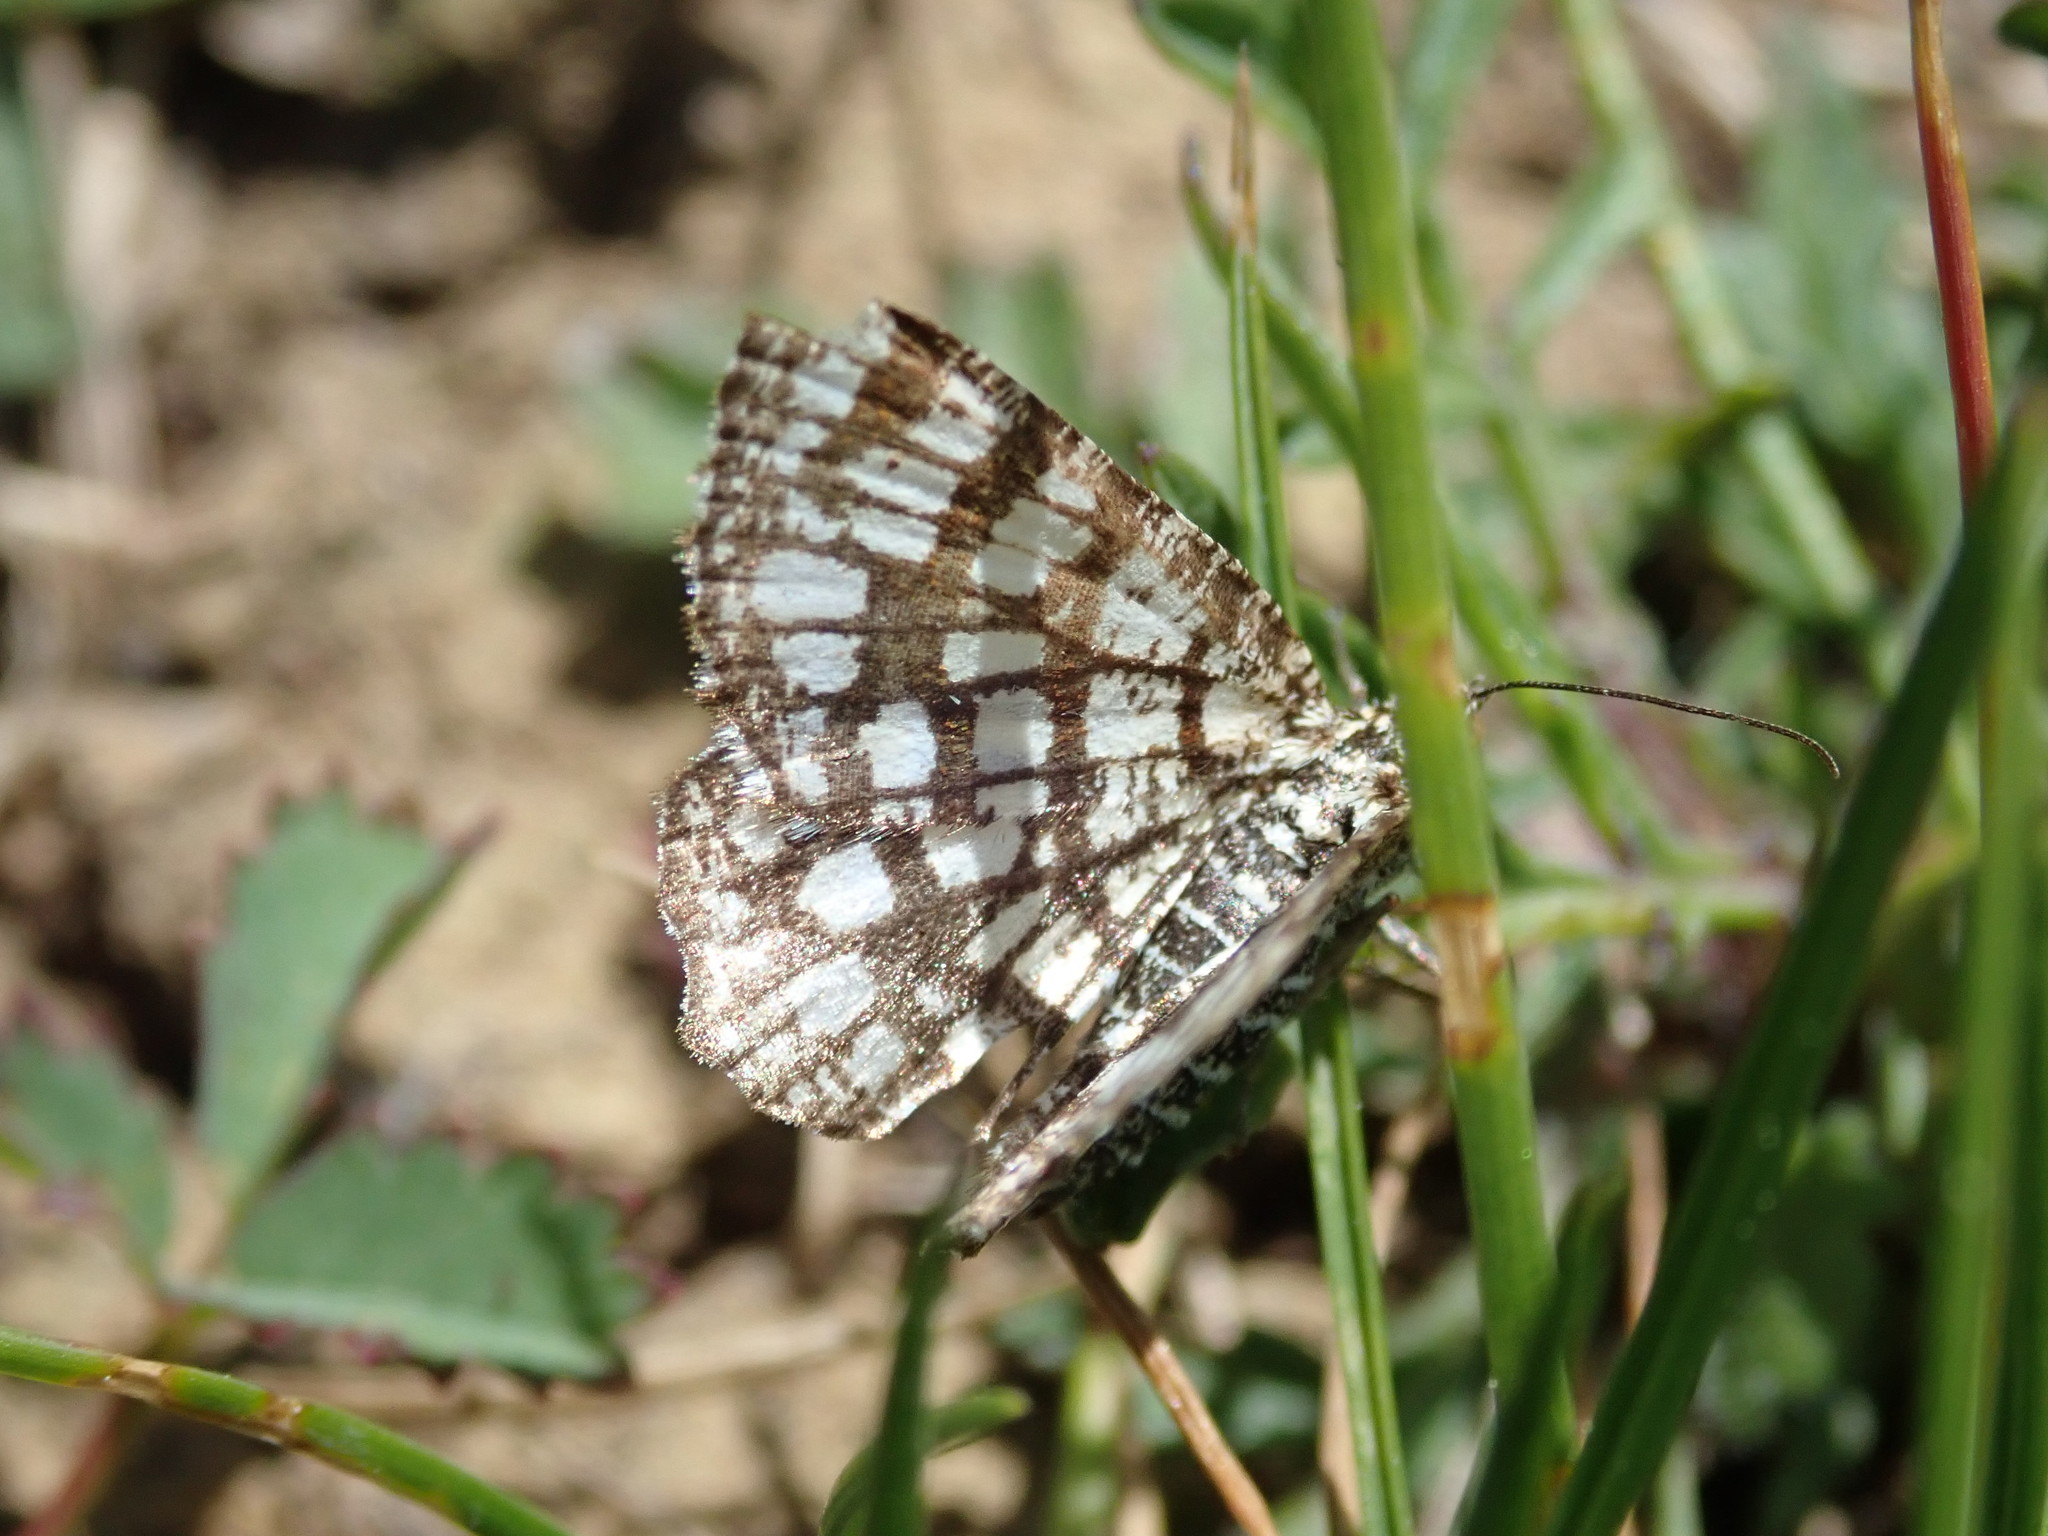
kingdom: Animalia
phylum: Arthropoda
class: Insecta
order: Lepidoptera
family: Geometridae
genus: Chiasmia
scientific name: Chiasmia clathrata
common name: Latticed heath
